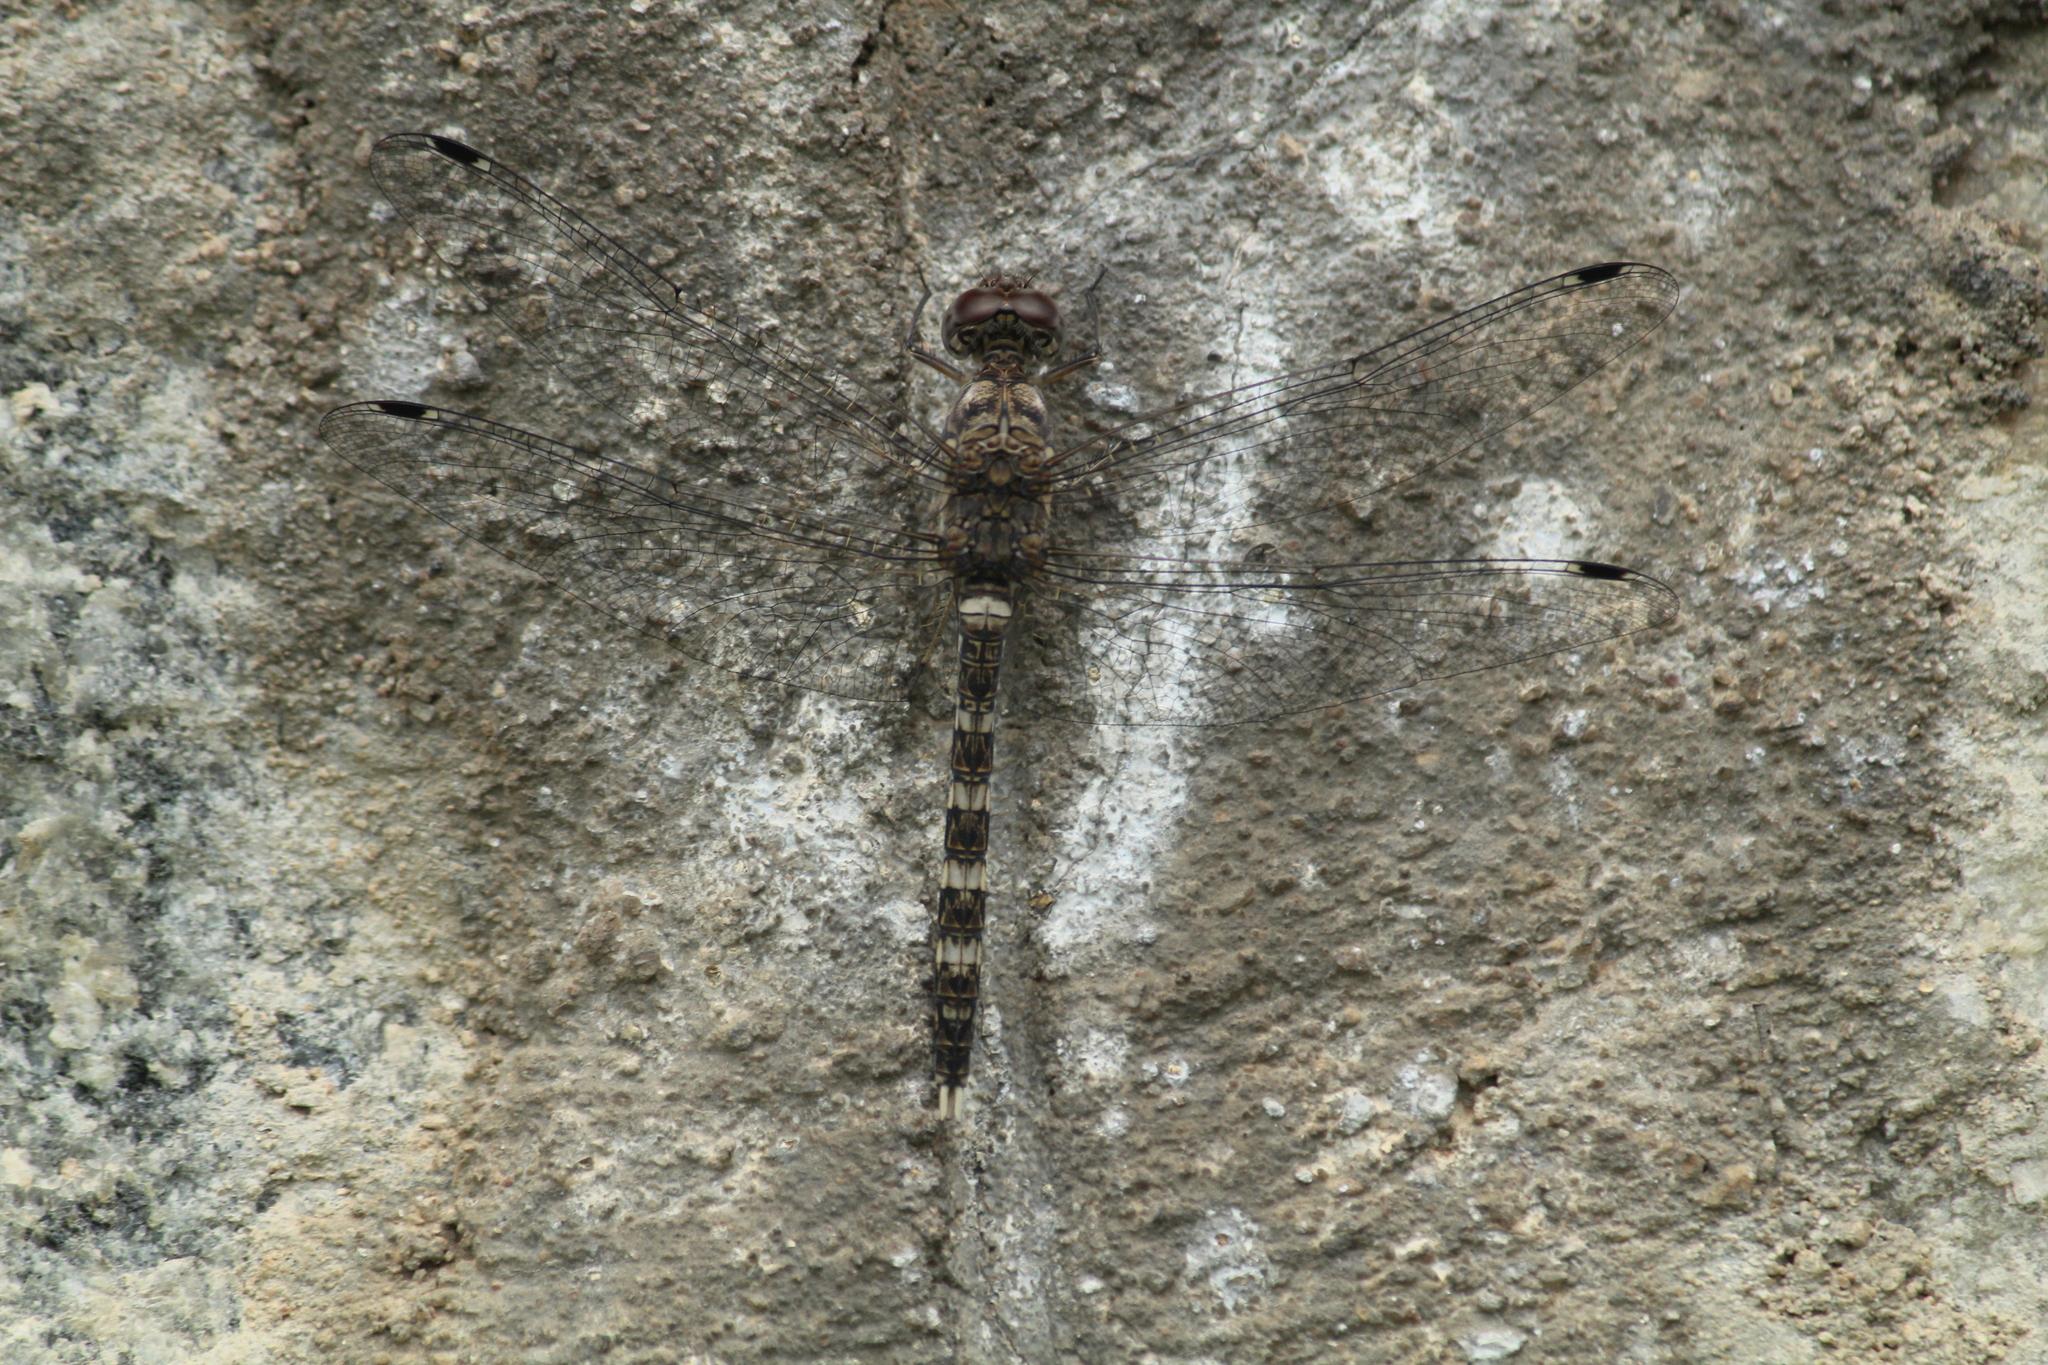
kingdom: Animalia
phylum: Arthropoda
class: Insecta
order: Odonata
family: Libellulidae
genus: Bradinopyga
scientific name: Bradinopyga geminata
